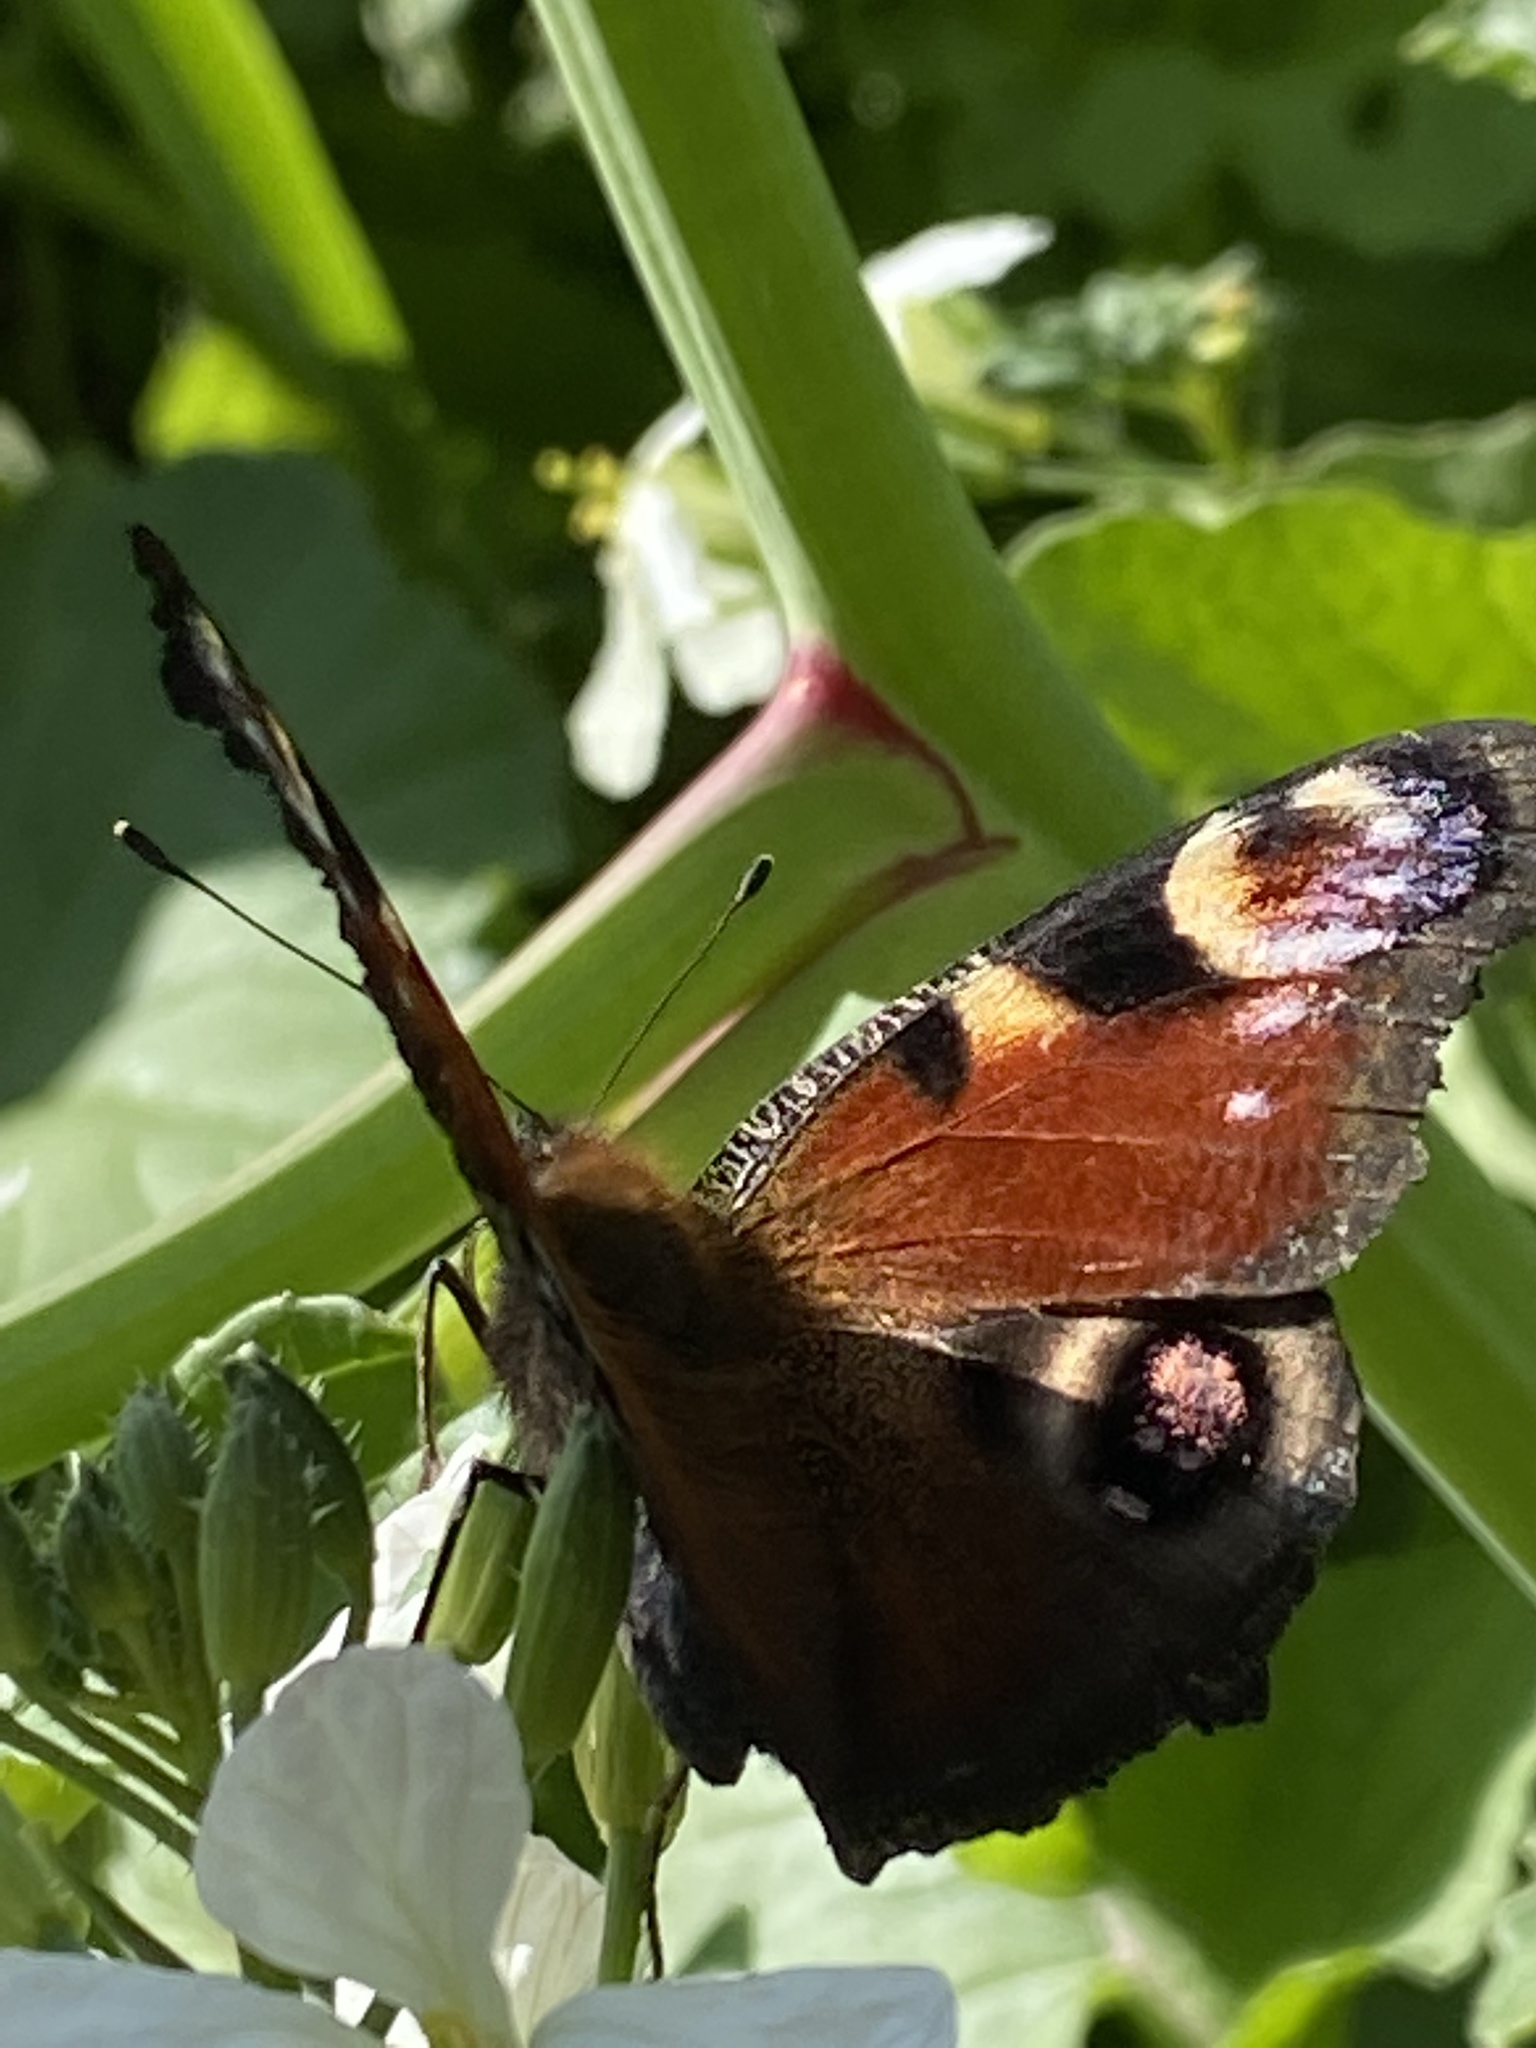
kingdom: Animalia
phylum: Arthropoda
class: Insecta
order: Lepidoptera
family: Nymphalidae
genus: Aglais
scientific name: Aglais io
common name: Peacock
